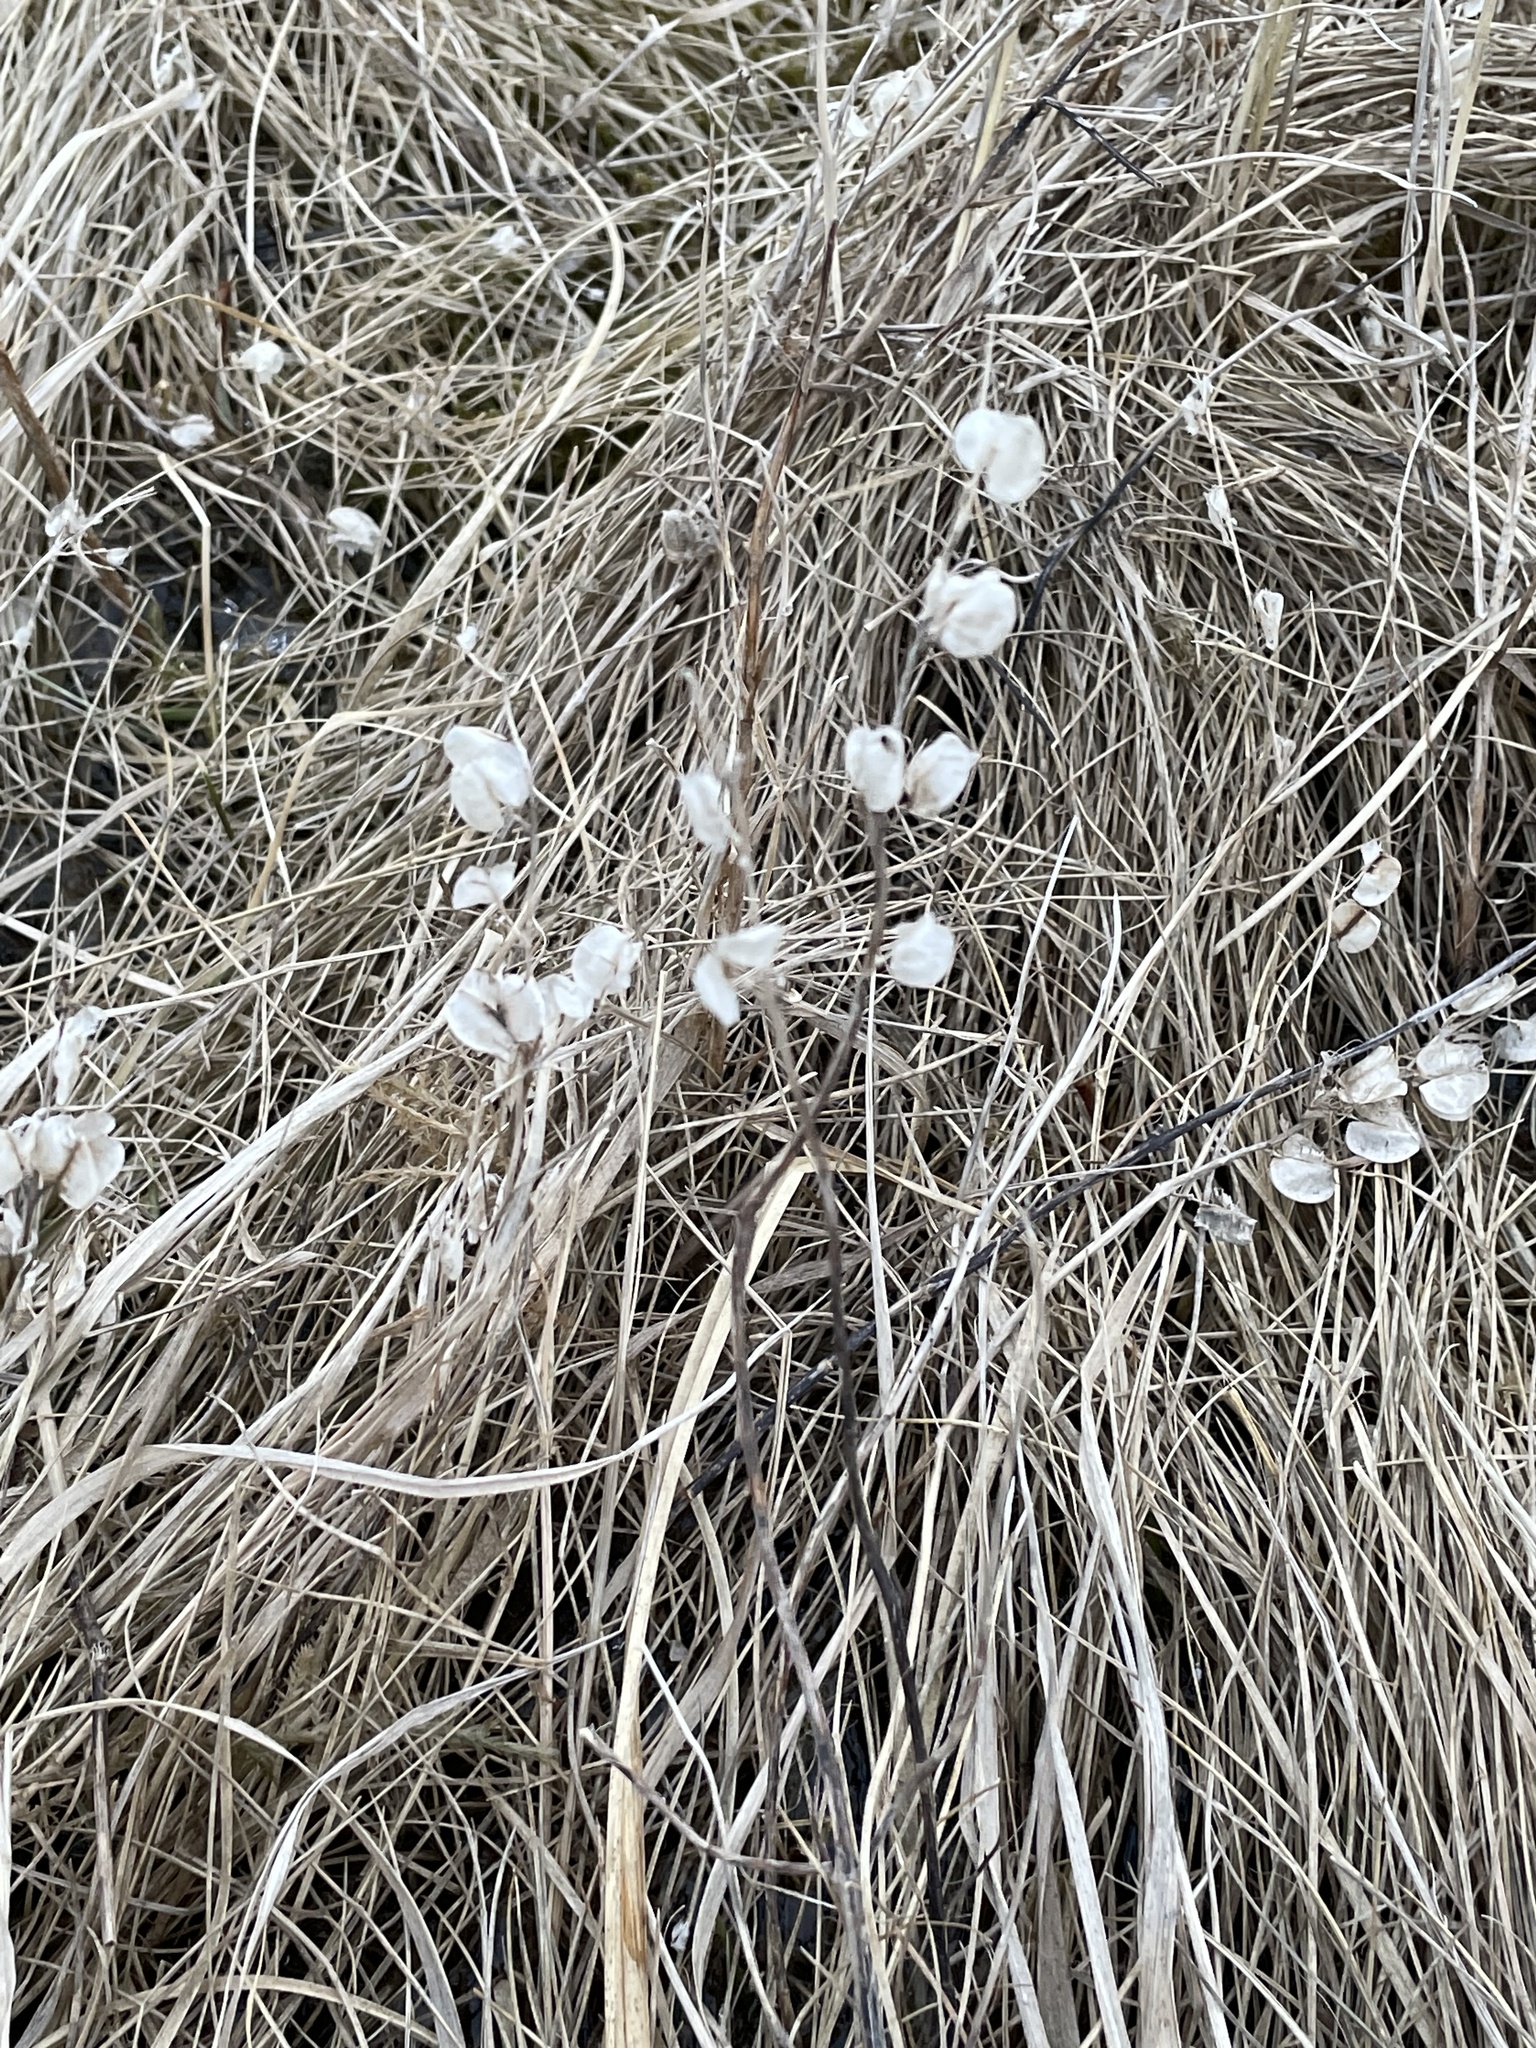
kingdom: Plantae
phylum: Tracheophyta
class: Magnoliopsida
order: Brassicales
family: Brassicaceae
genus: Thlaspi
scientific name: Thlaspi arvense
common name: Field pennycress
